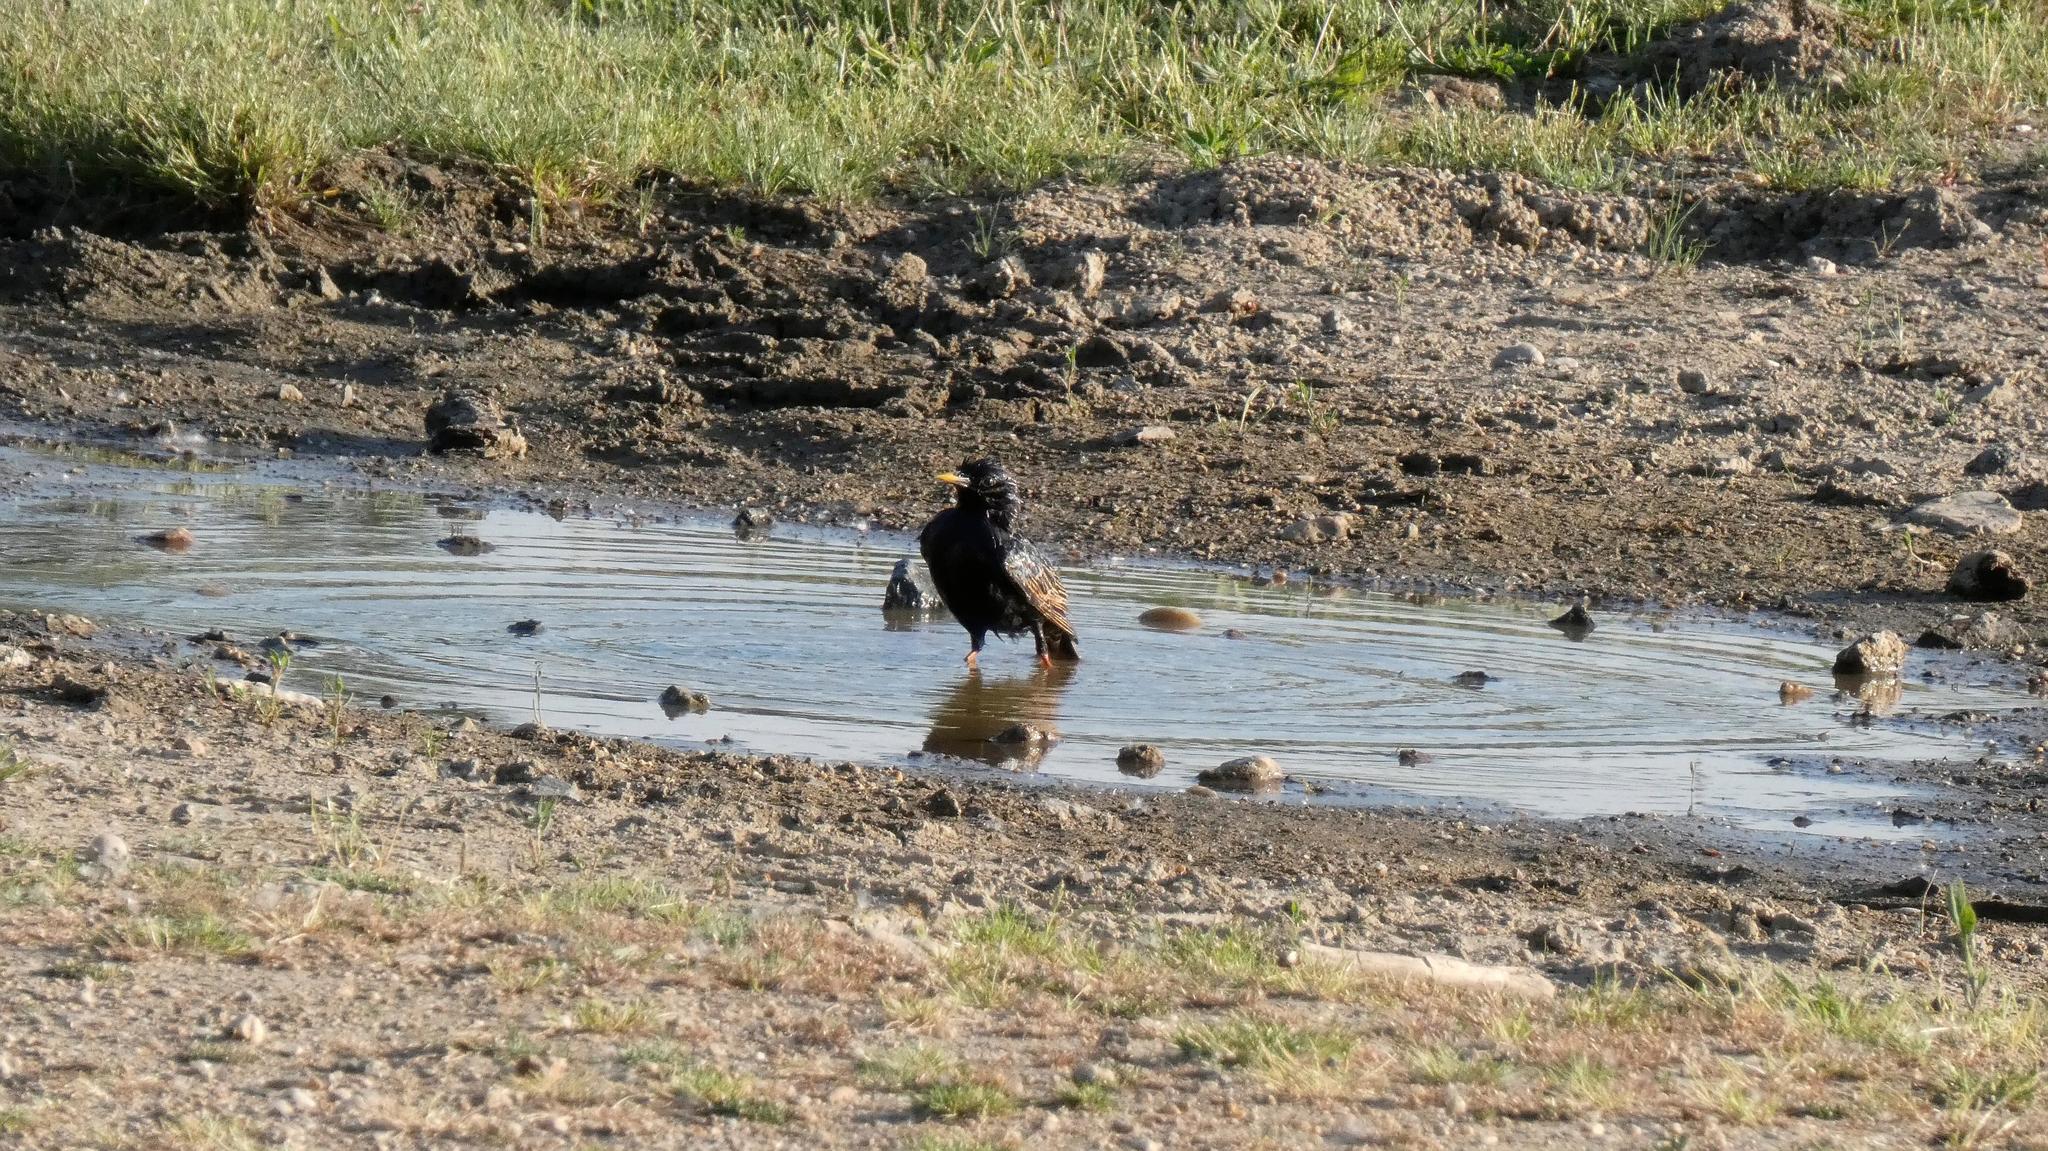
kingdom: Animalia
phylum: Chordata
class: Aves
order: Passeriformes
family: Sturnidae
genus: Sturnus
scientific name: Sturnus vulgaris
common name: Common starling
